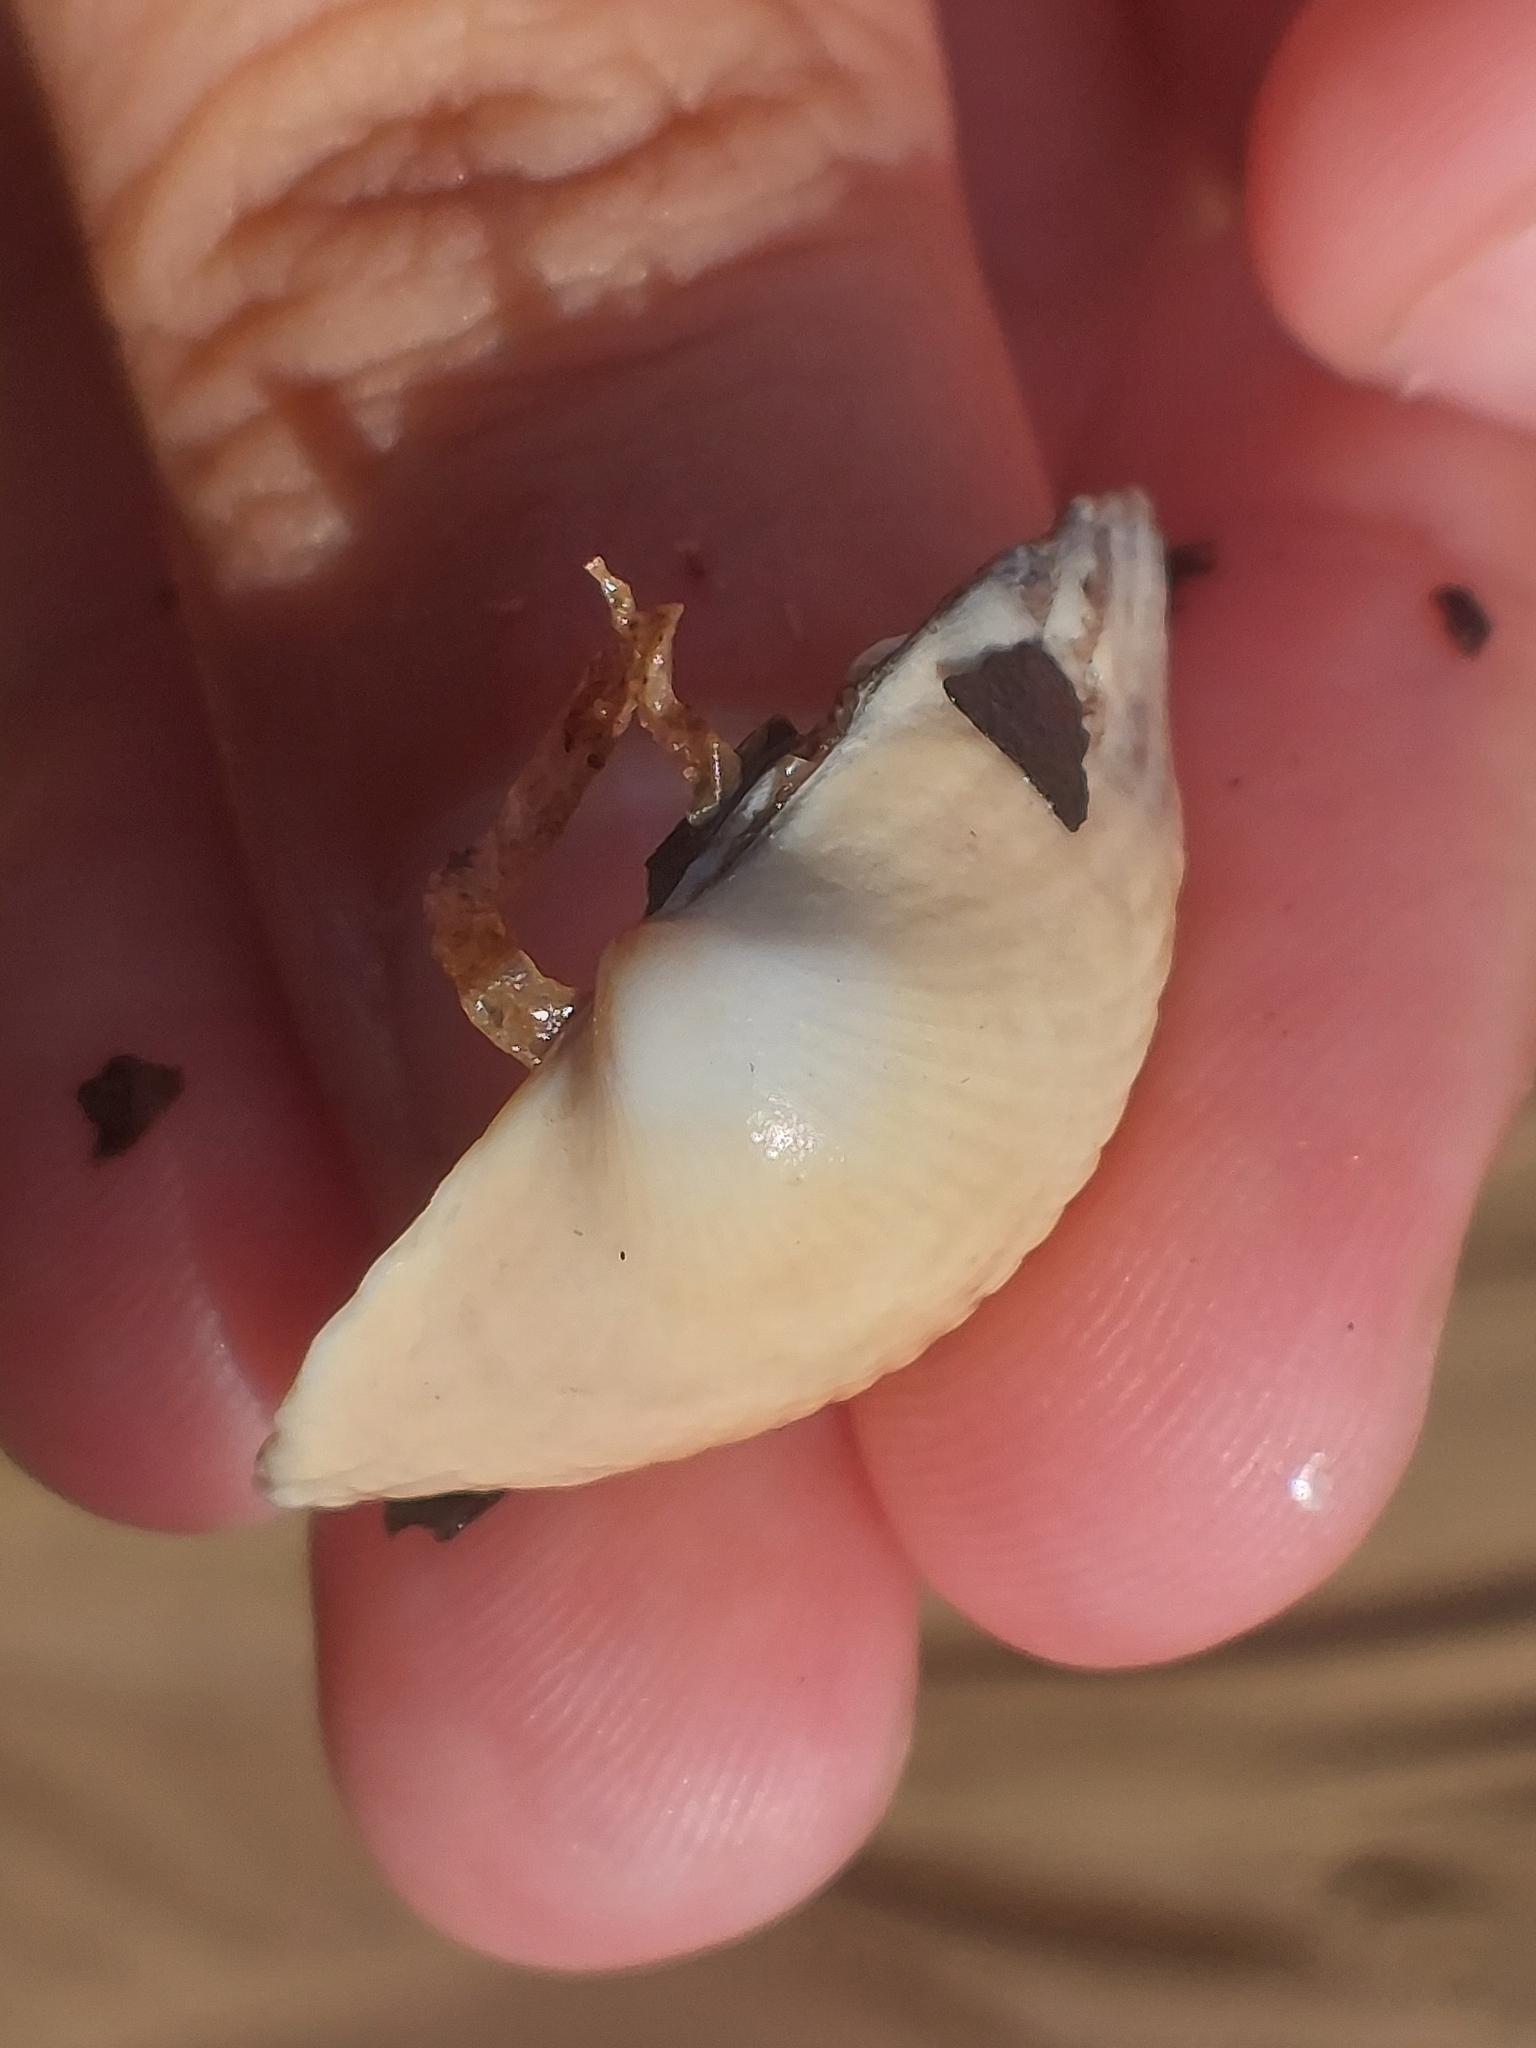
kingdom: Animalia
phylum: Mollusca
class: Bivalvia
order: Cardiida
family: Cardiidae
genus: Cerastoderma
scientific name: Cerastoderma edule
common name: Common cockle
